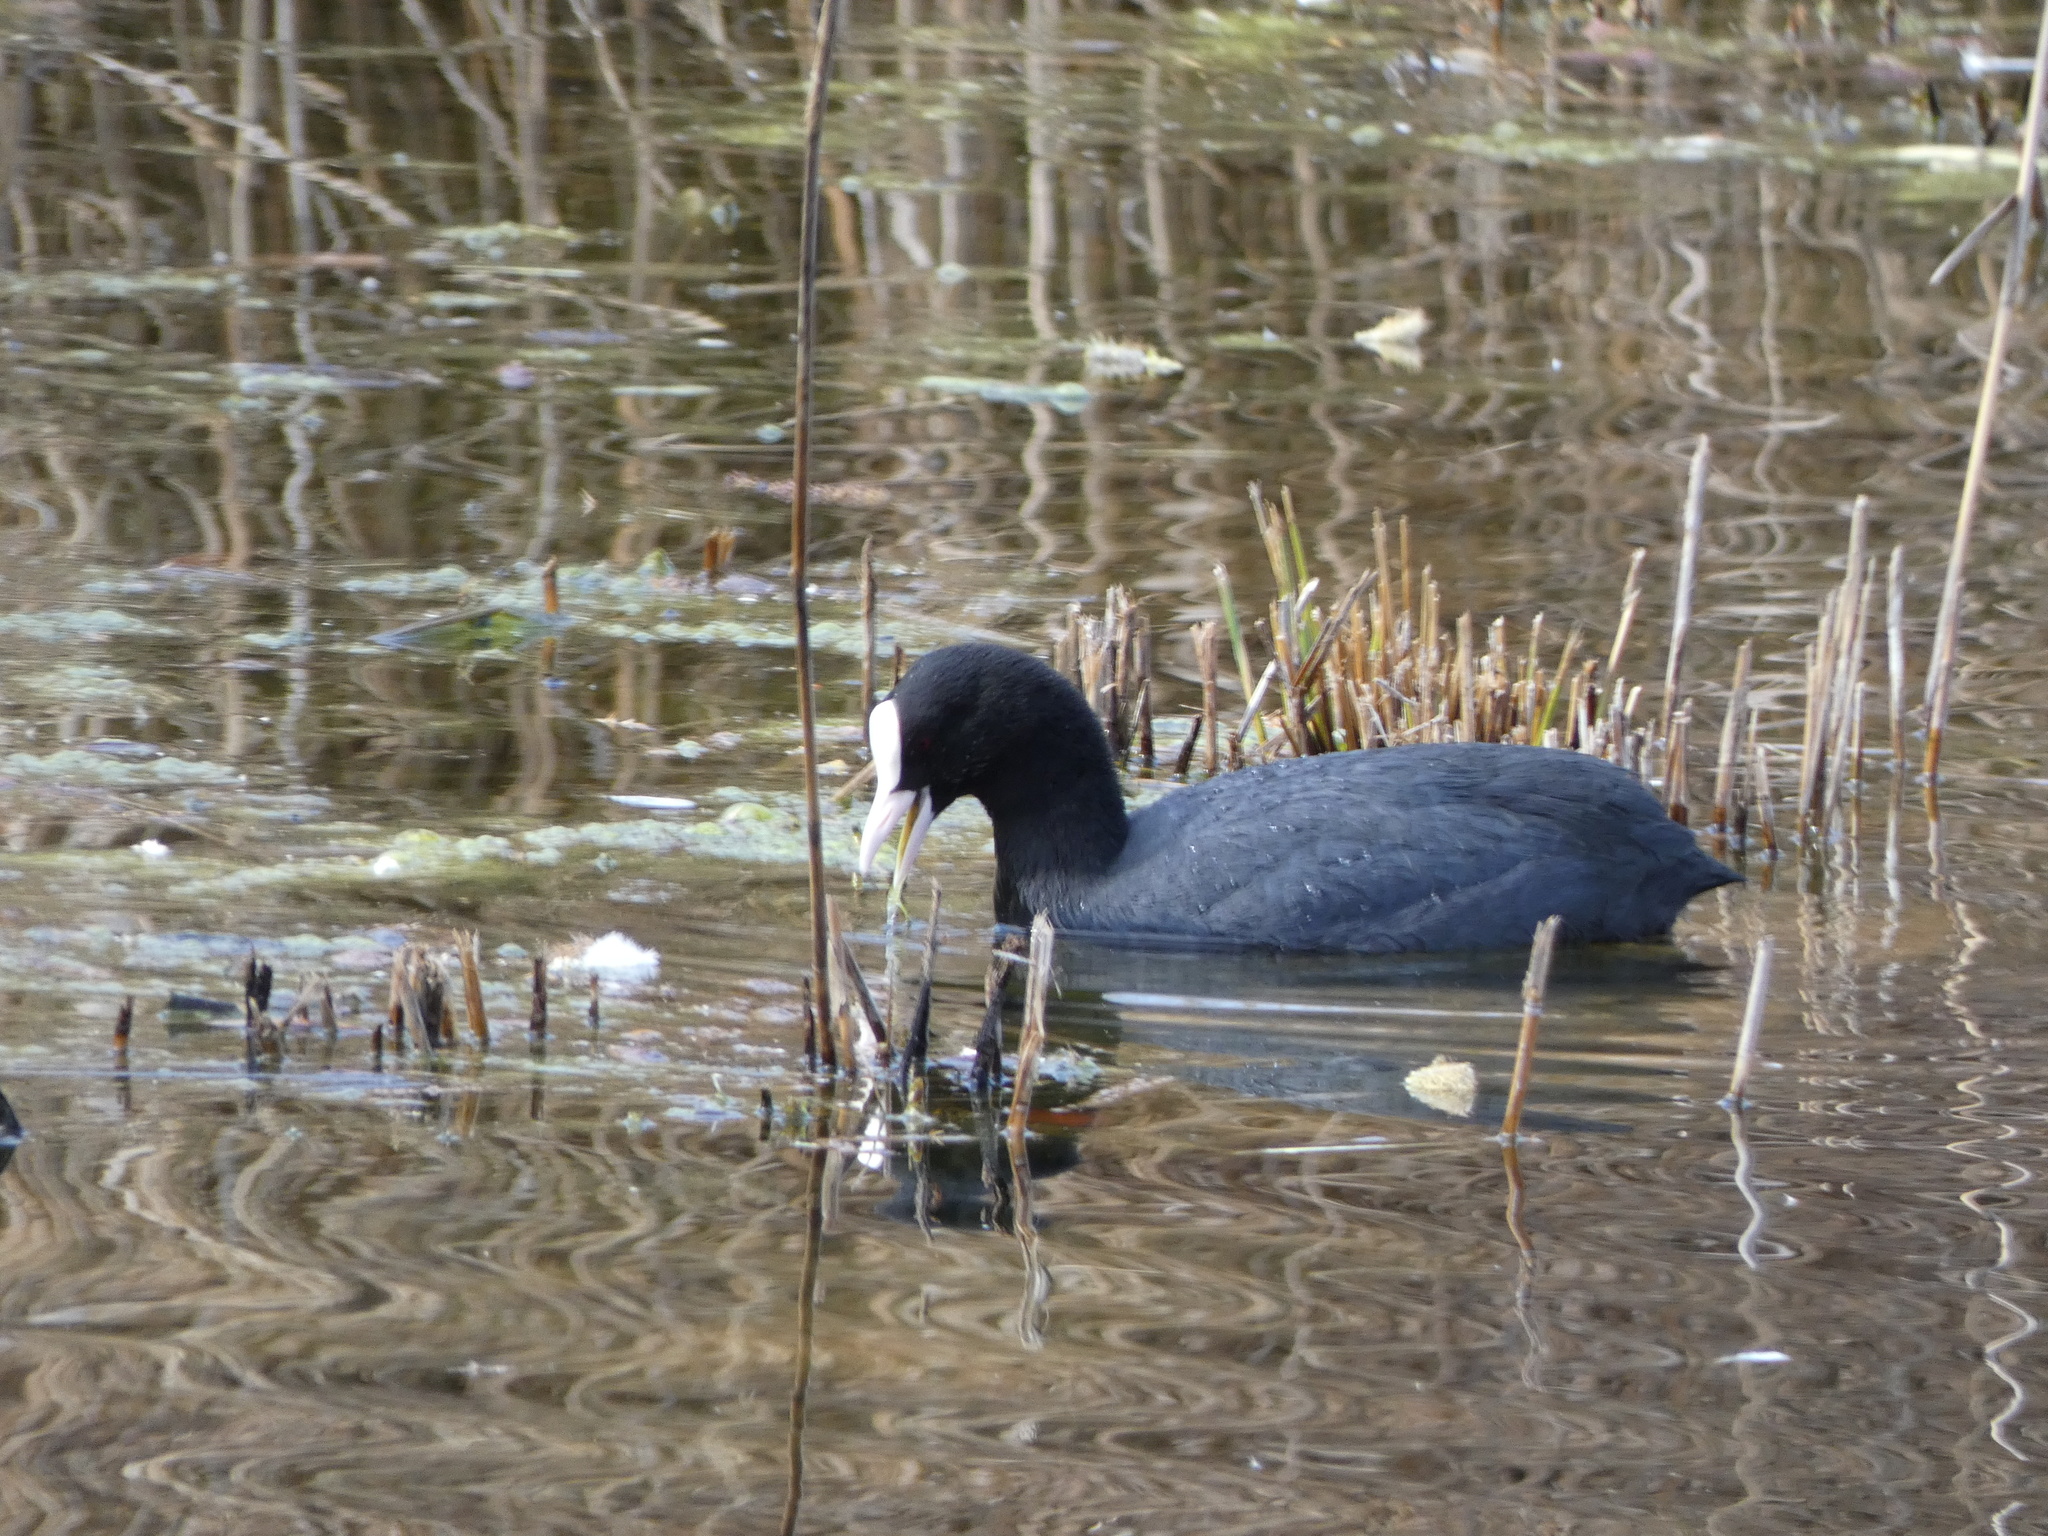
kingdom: Animalia
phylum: Chordata
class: Aves
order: Gruiformes
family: Rallidae
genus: Fulica
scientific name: Fulica atra
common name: Eurasian coot
